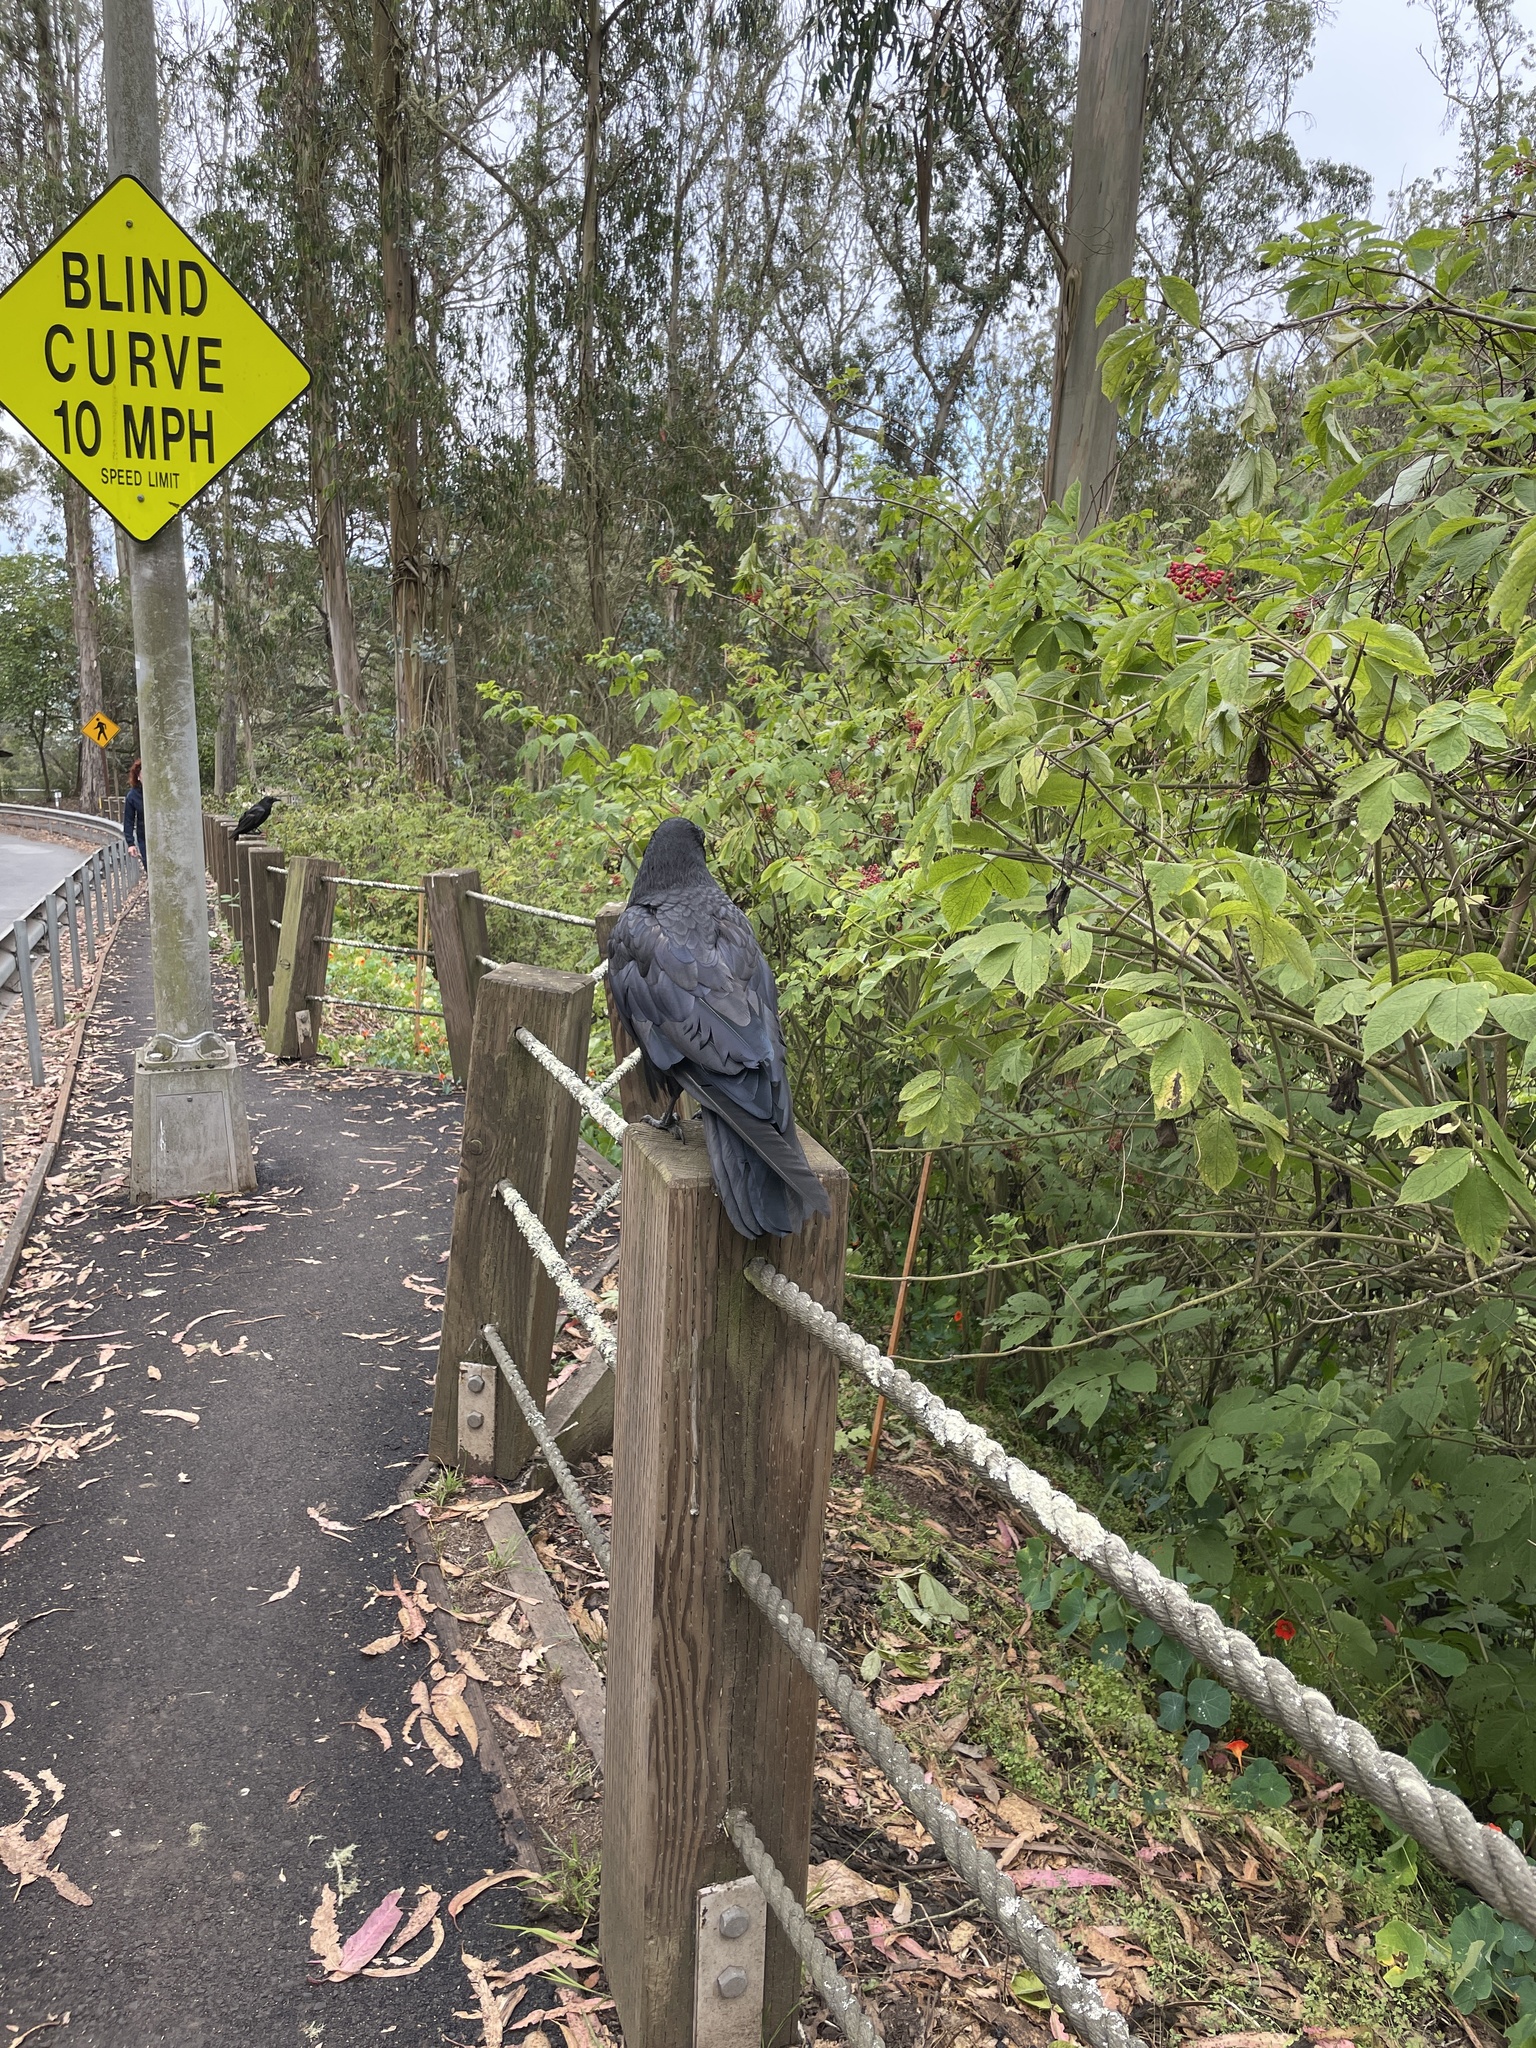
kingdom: Animalia
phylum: Chordata
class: Aves
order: Passeriformes
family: Corvidae
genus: Corvus
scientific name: Corvus corax
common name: Common raven
